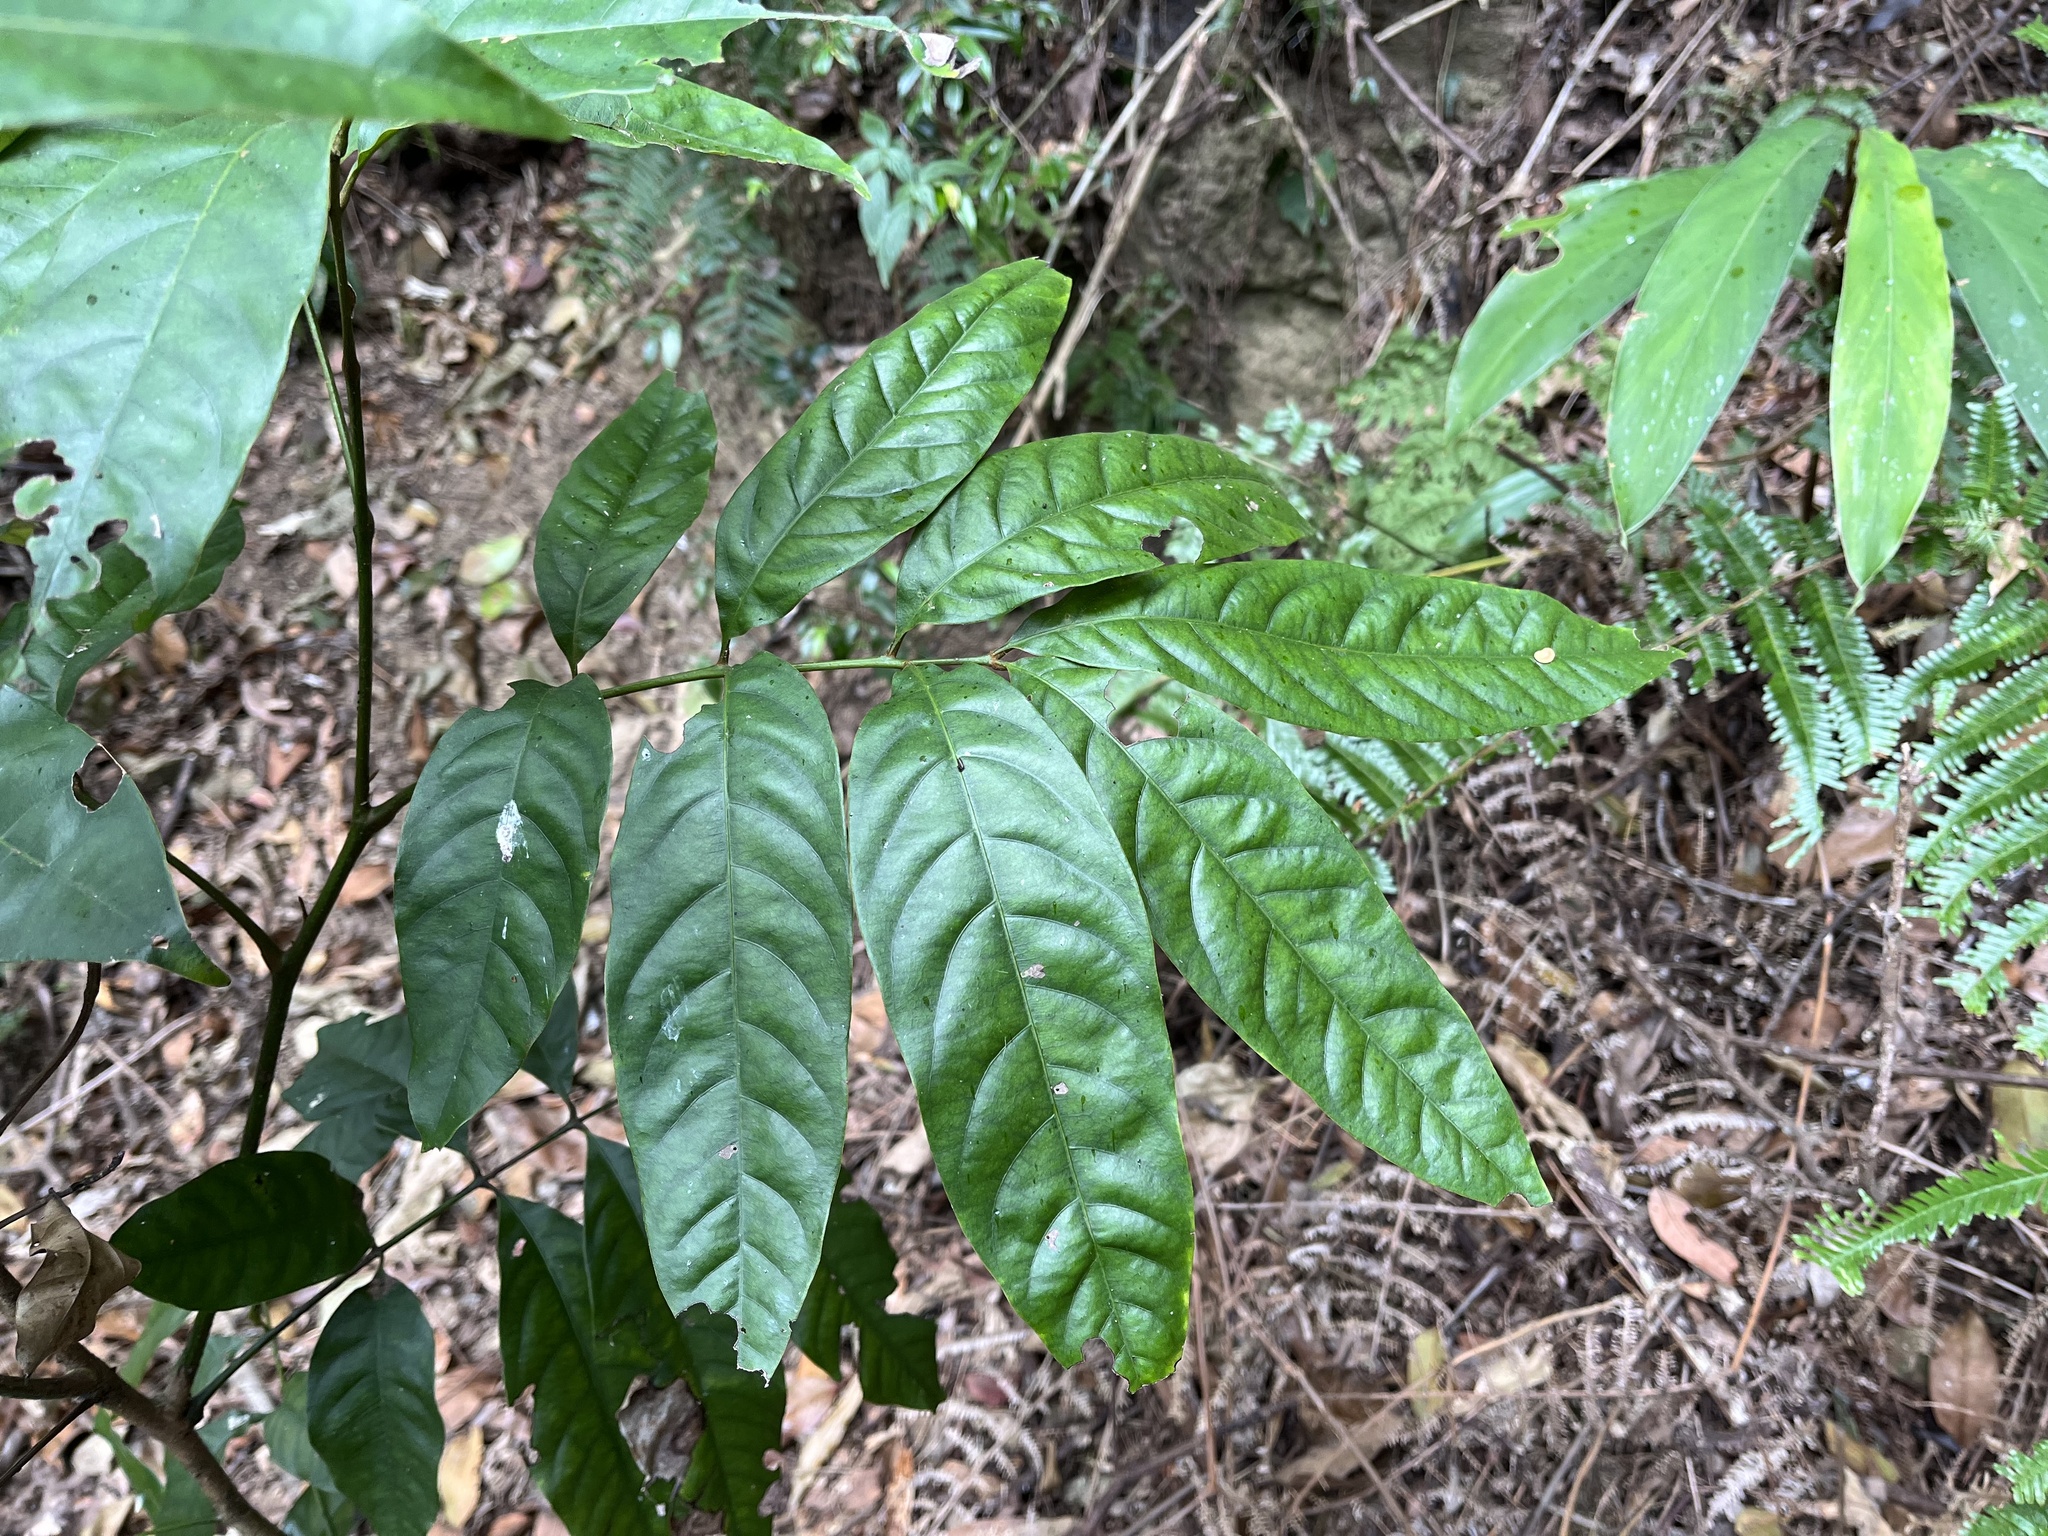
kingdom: Plantae
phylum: Tracheophyta
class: Magnoliopsida
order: Fagales
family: Juglandaceae
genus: Engelhardia
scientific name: Engelhardia roxburghiana
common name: Golden malay beam
